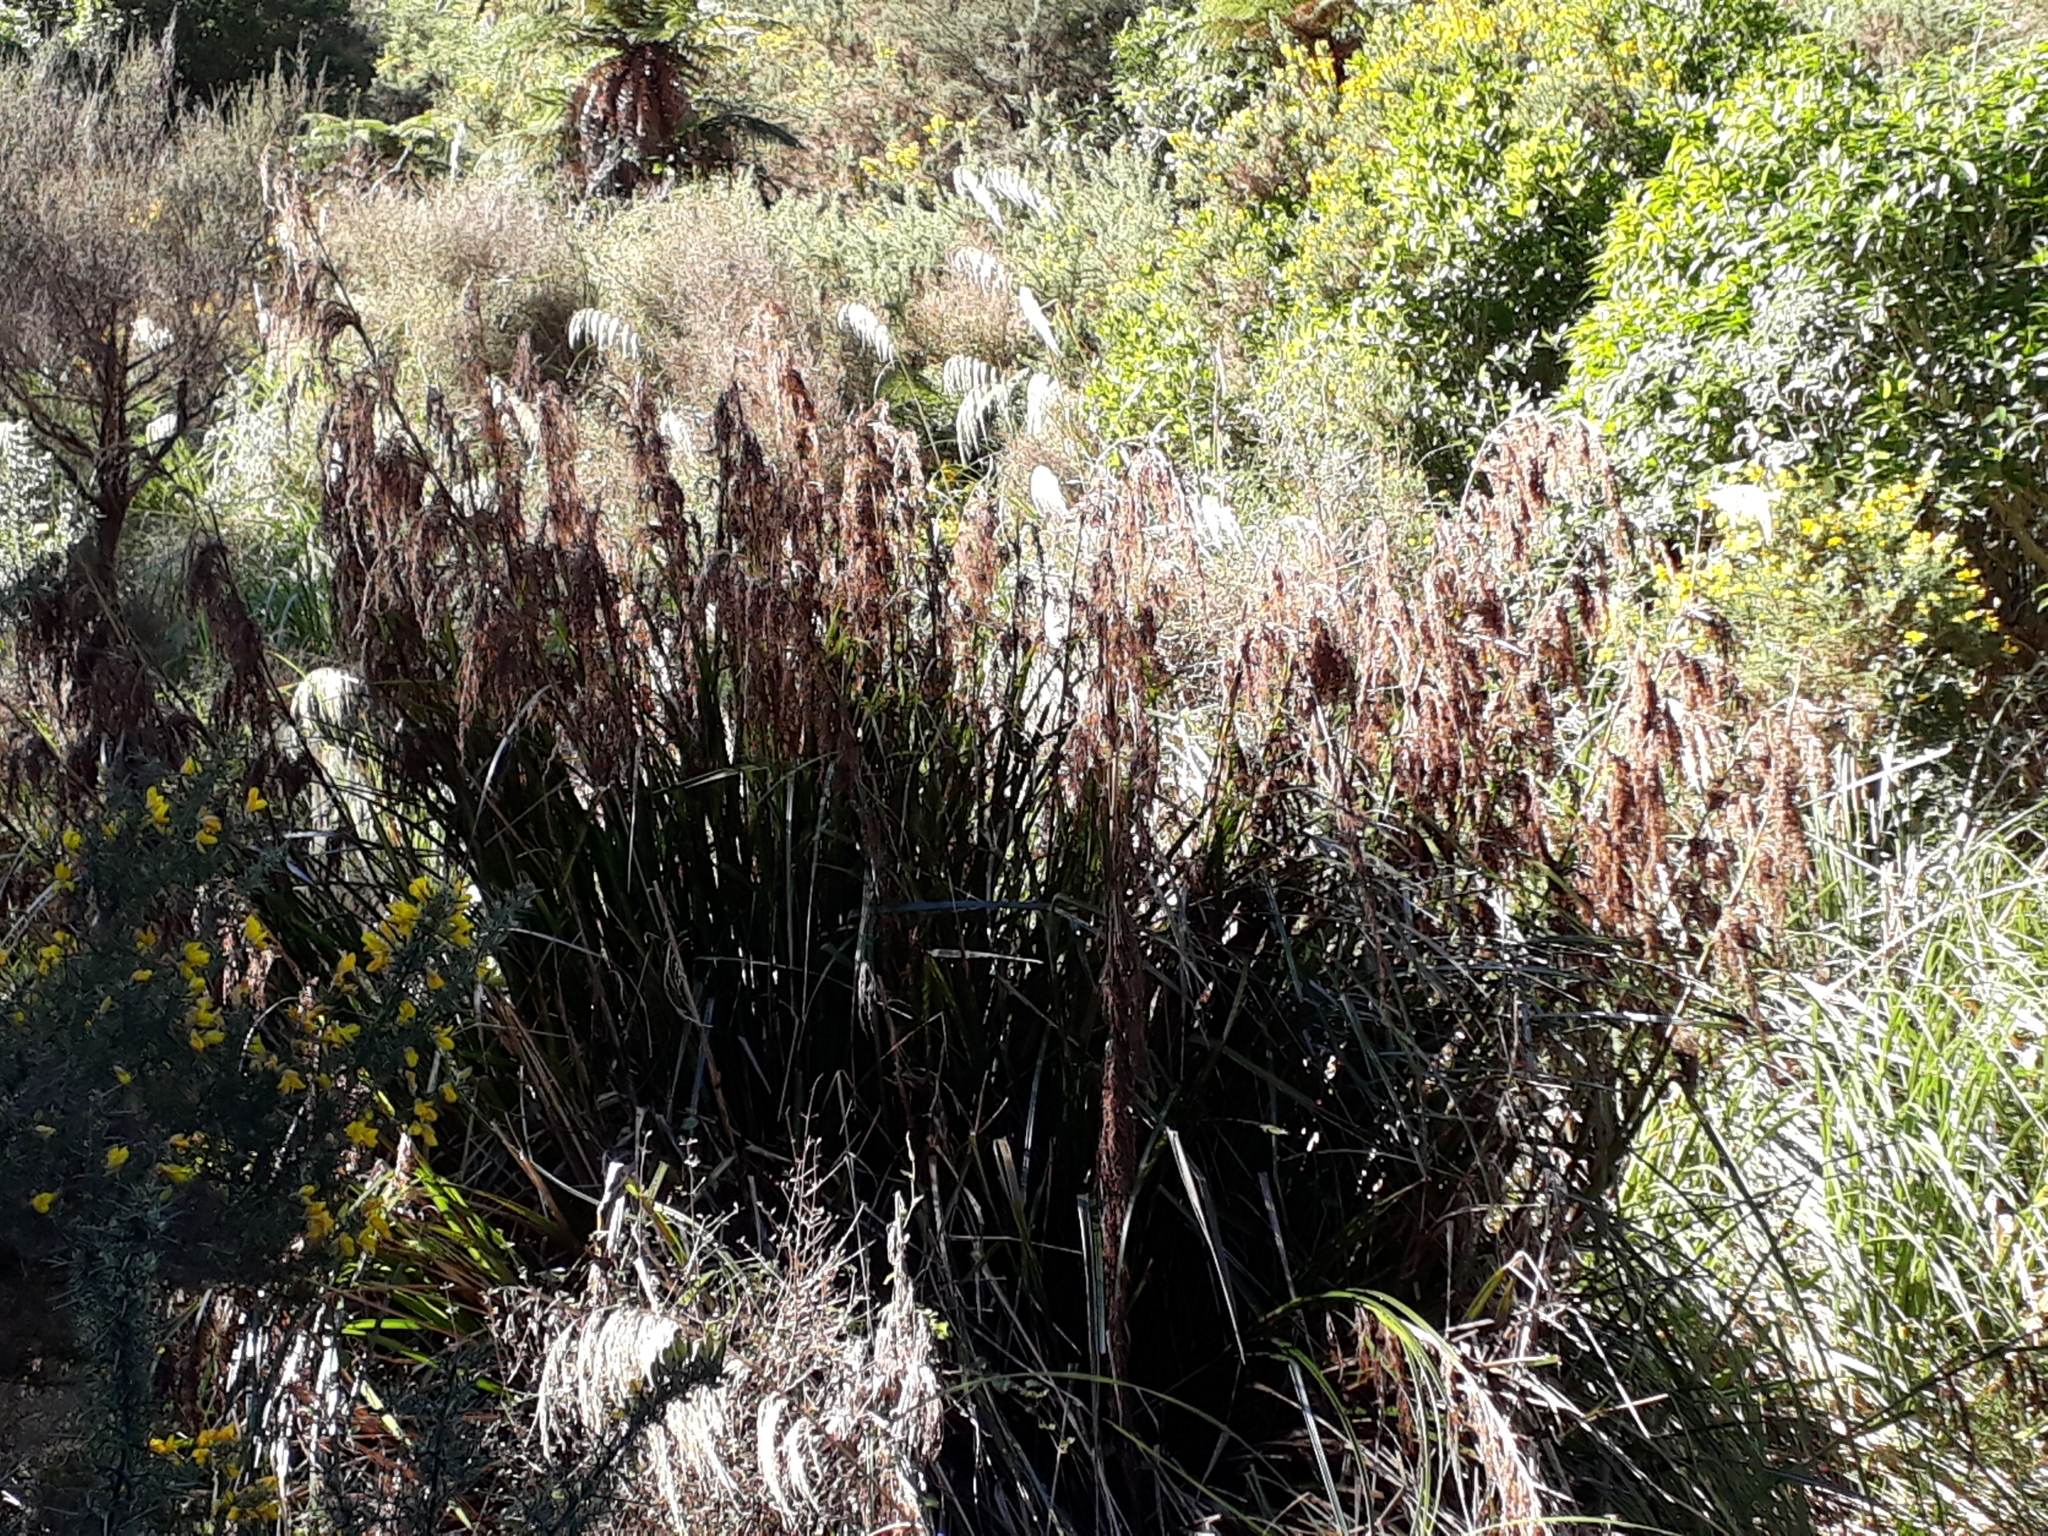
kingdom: Plantae
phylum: Tracheophyta
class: Liliopsida
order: Poales
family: Cyperaceae
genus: Gahnia
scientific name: Gahnia xanthocarpa
